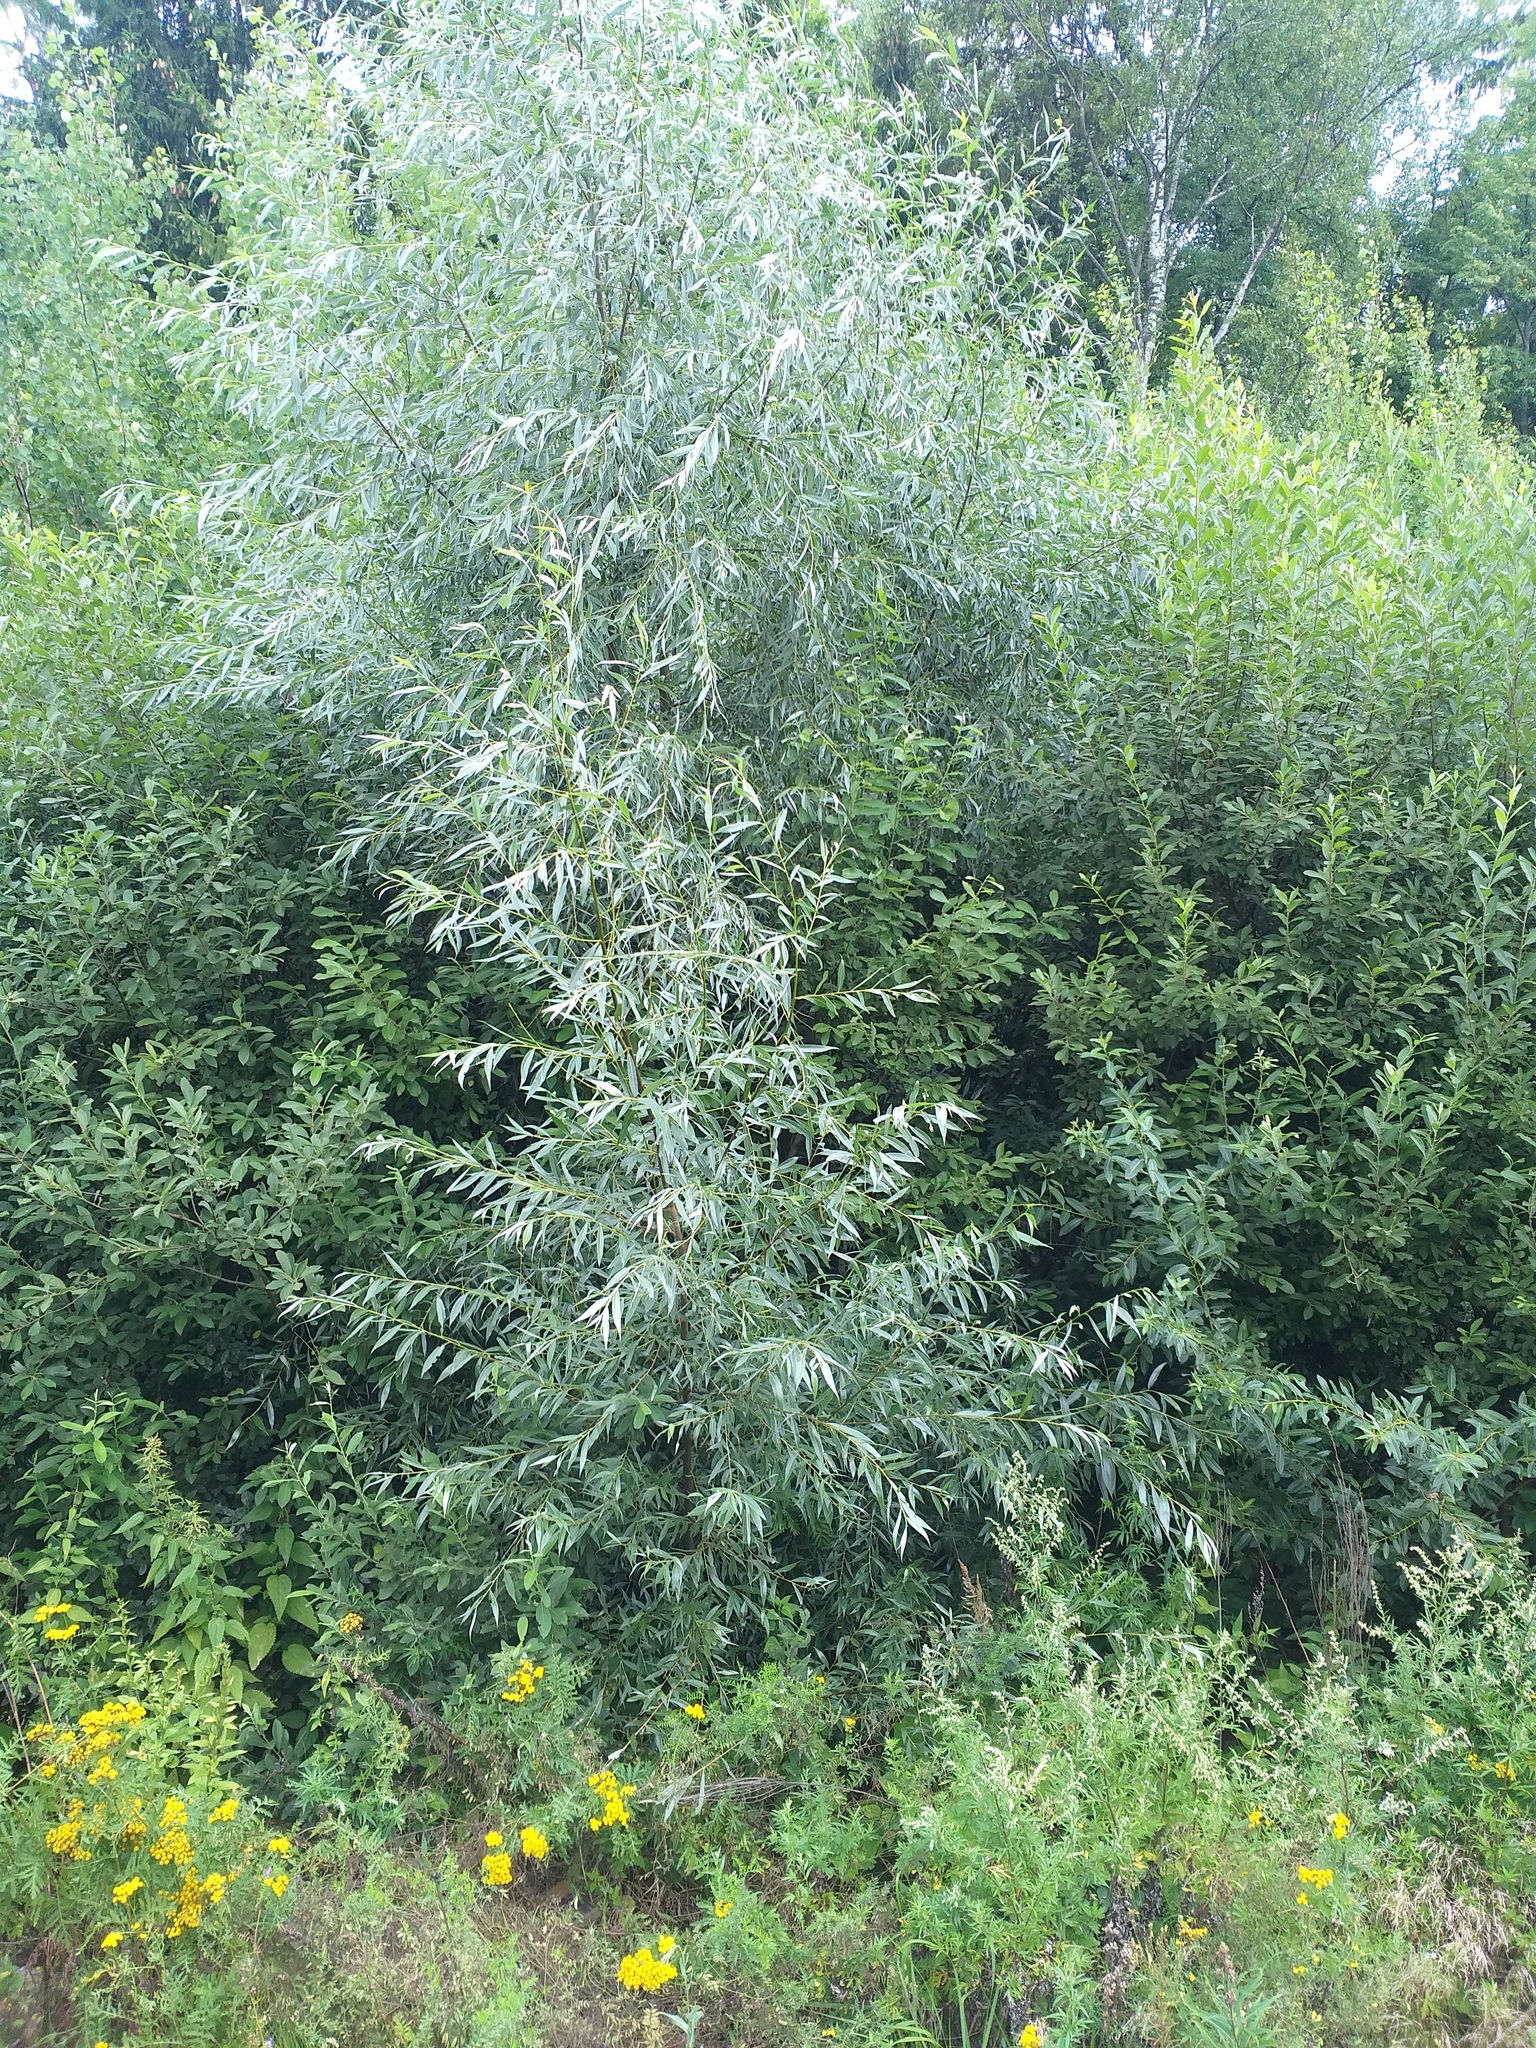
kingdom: Plantae
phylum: Tracheophyta
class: Magnoliopsida
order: Malpighiales
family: Salicaceae
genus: Salix
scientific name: Salix alba
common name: White willow
